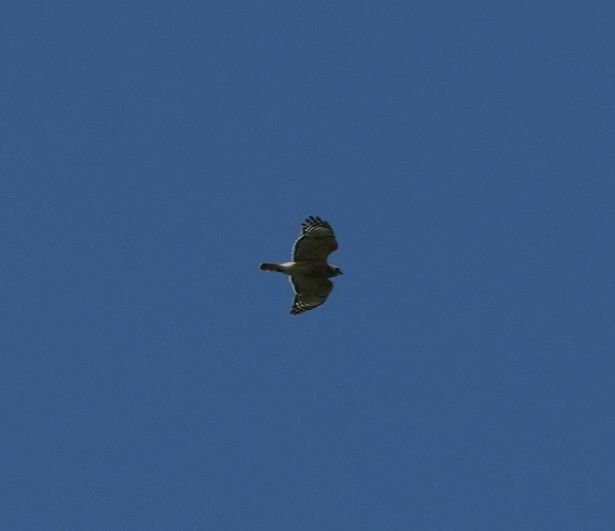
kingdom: Animalia
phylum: Chordata
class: Aves
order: Accipitriformes
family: Accipitridae
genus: Buteo
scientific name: Buteo lineatus
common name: Red-shouldered hawk
